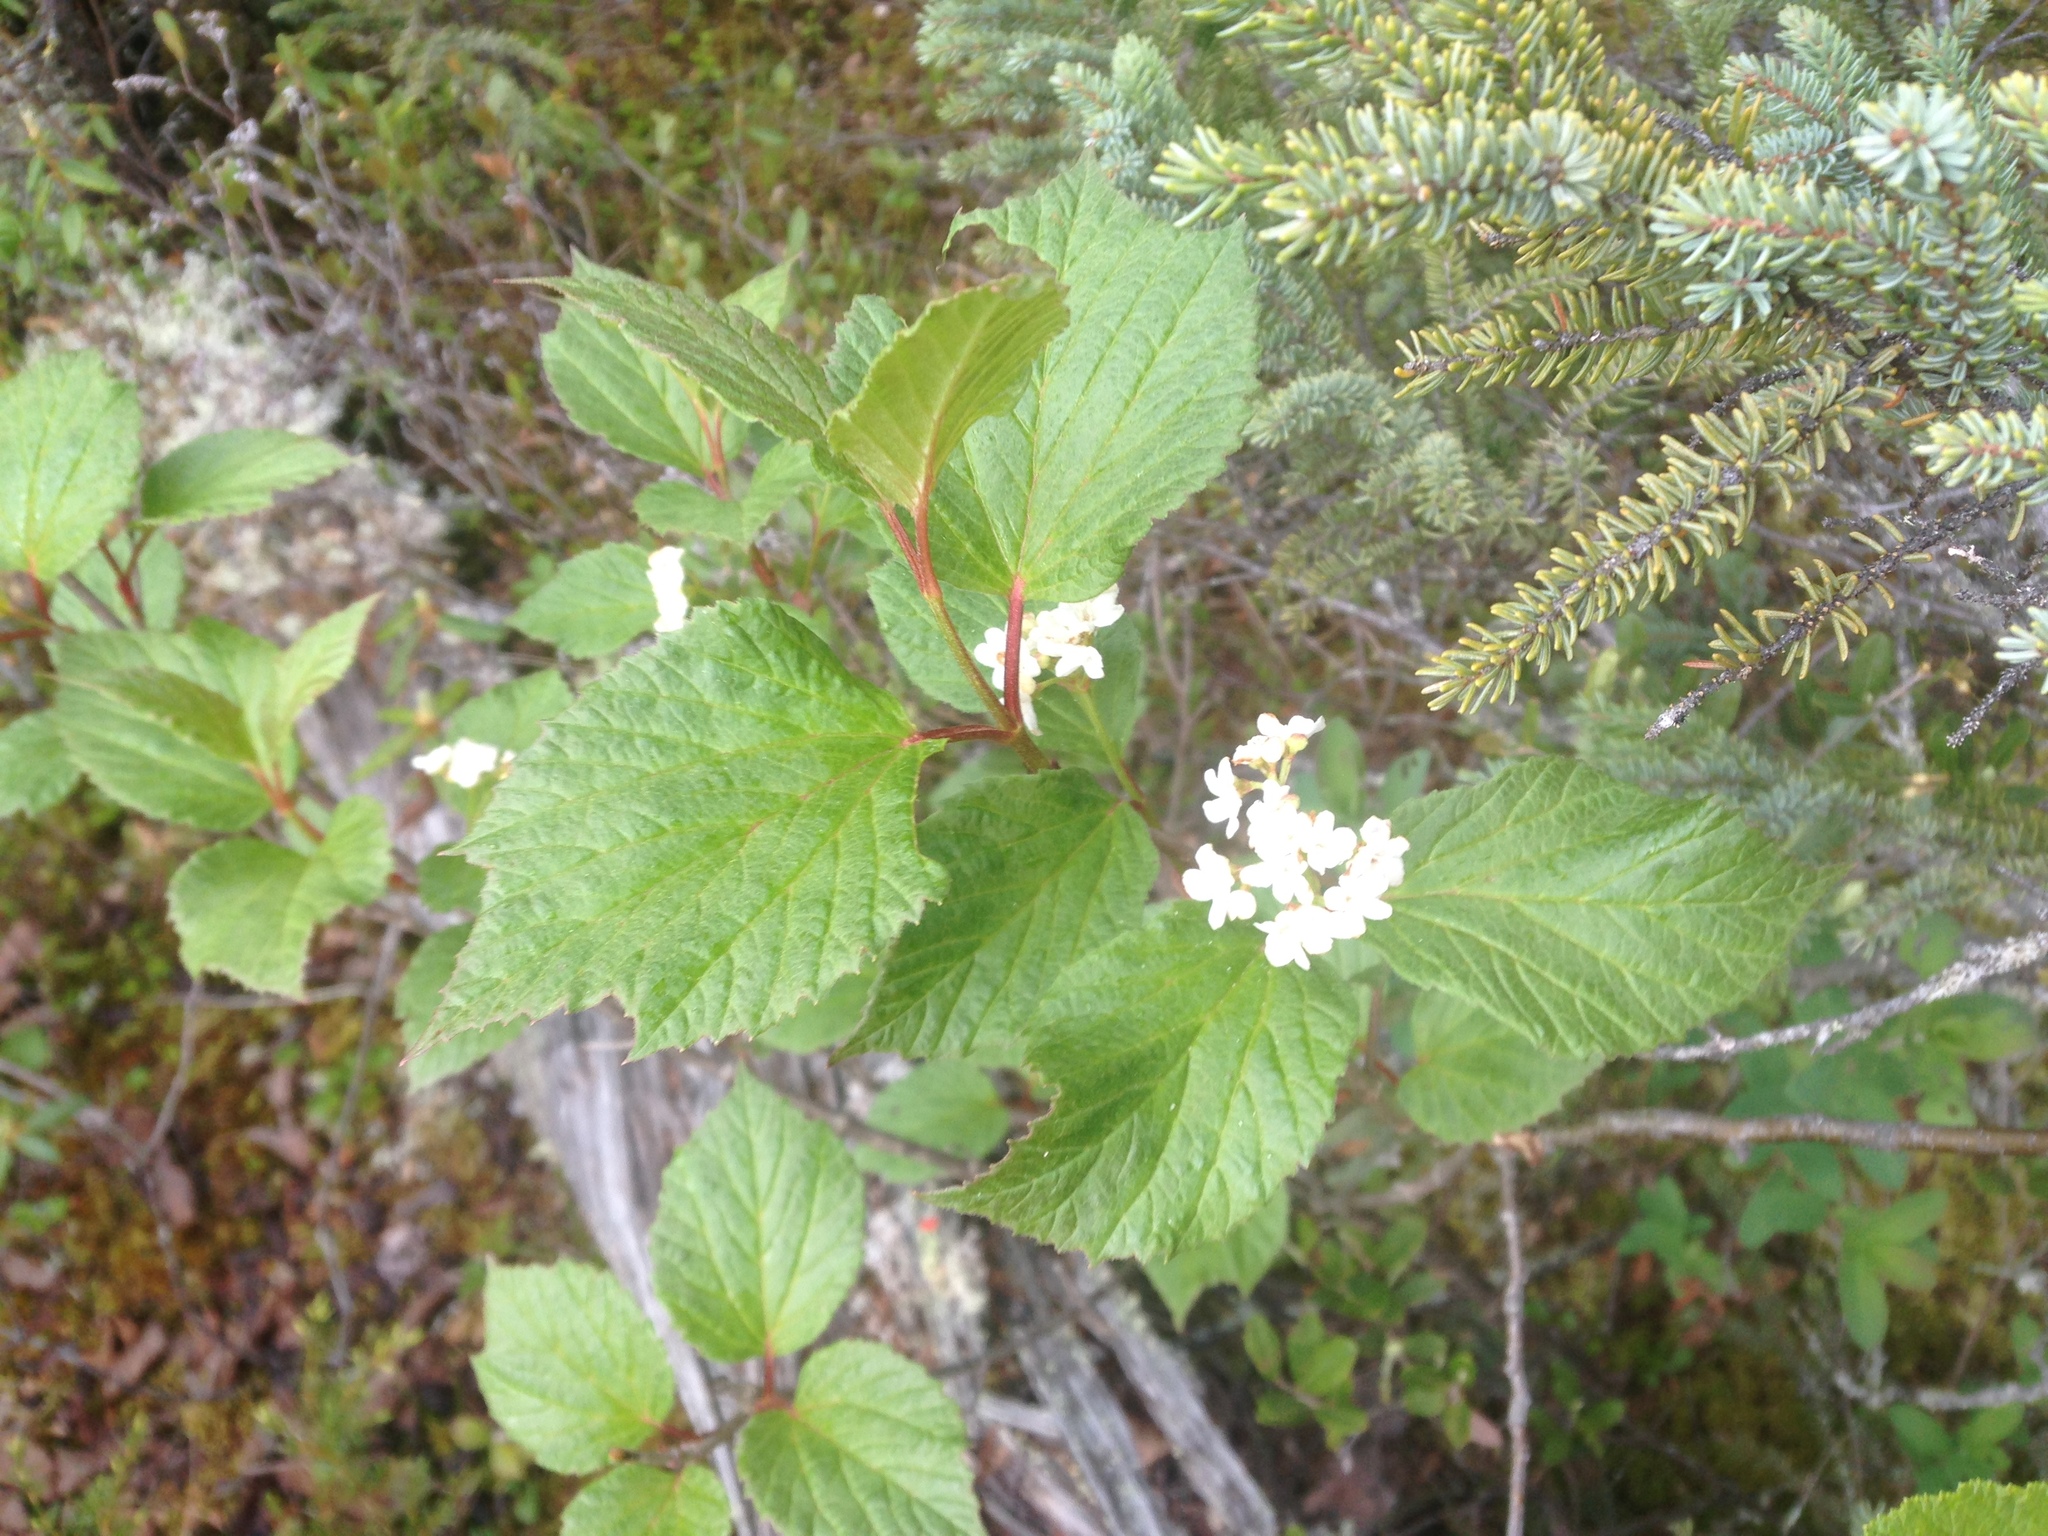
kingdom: Plantae
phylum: Tracheophyta
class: Magnoliopsida
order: Dipsacales
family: Viburnaceae
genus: Viburnum
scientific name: Viburnum edule
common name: Mooseberry
